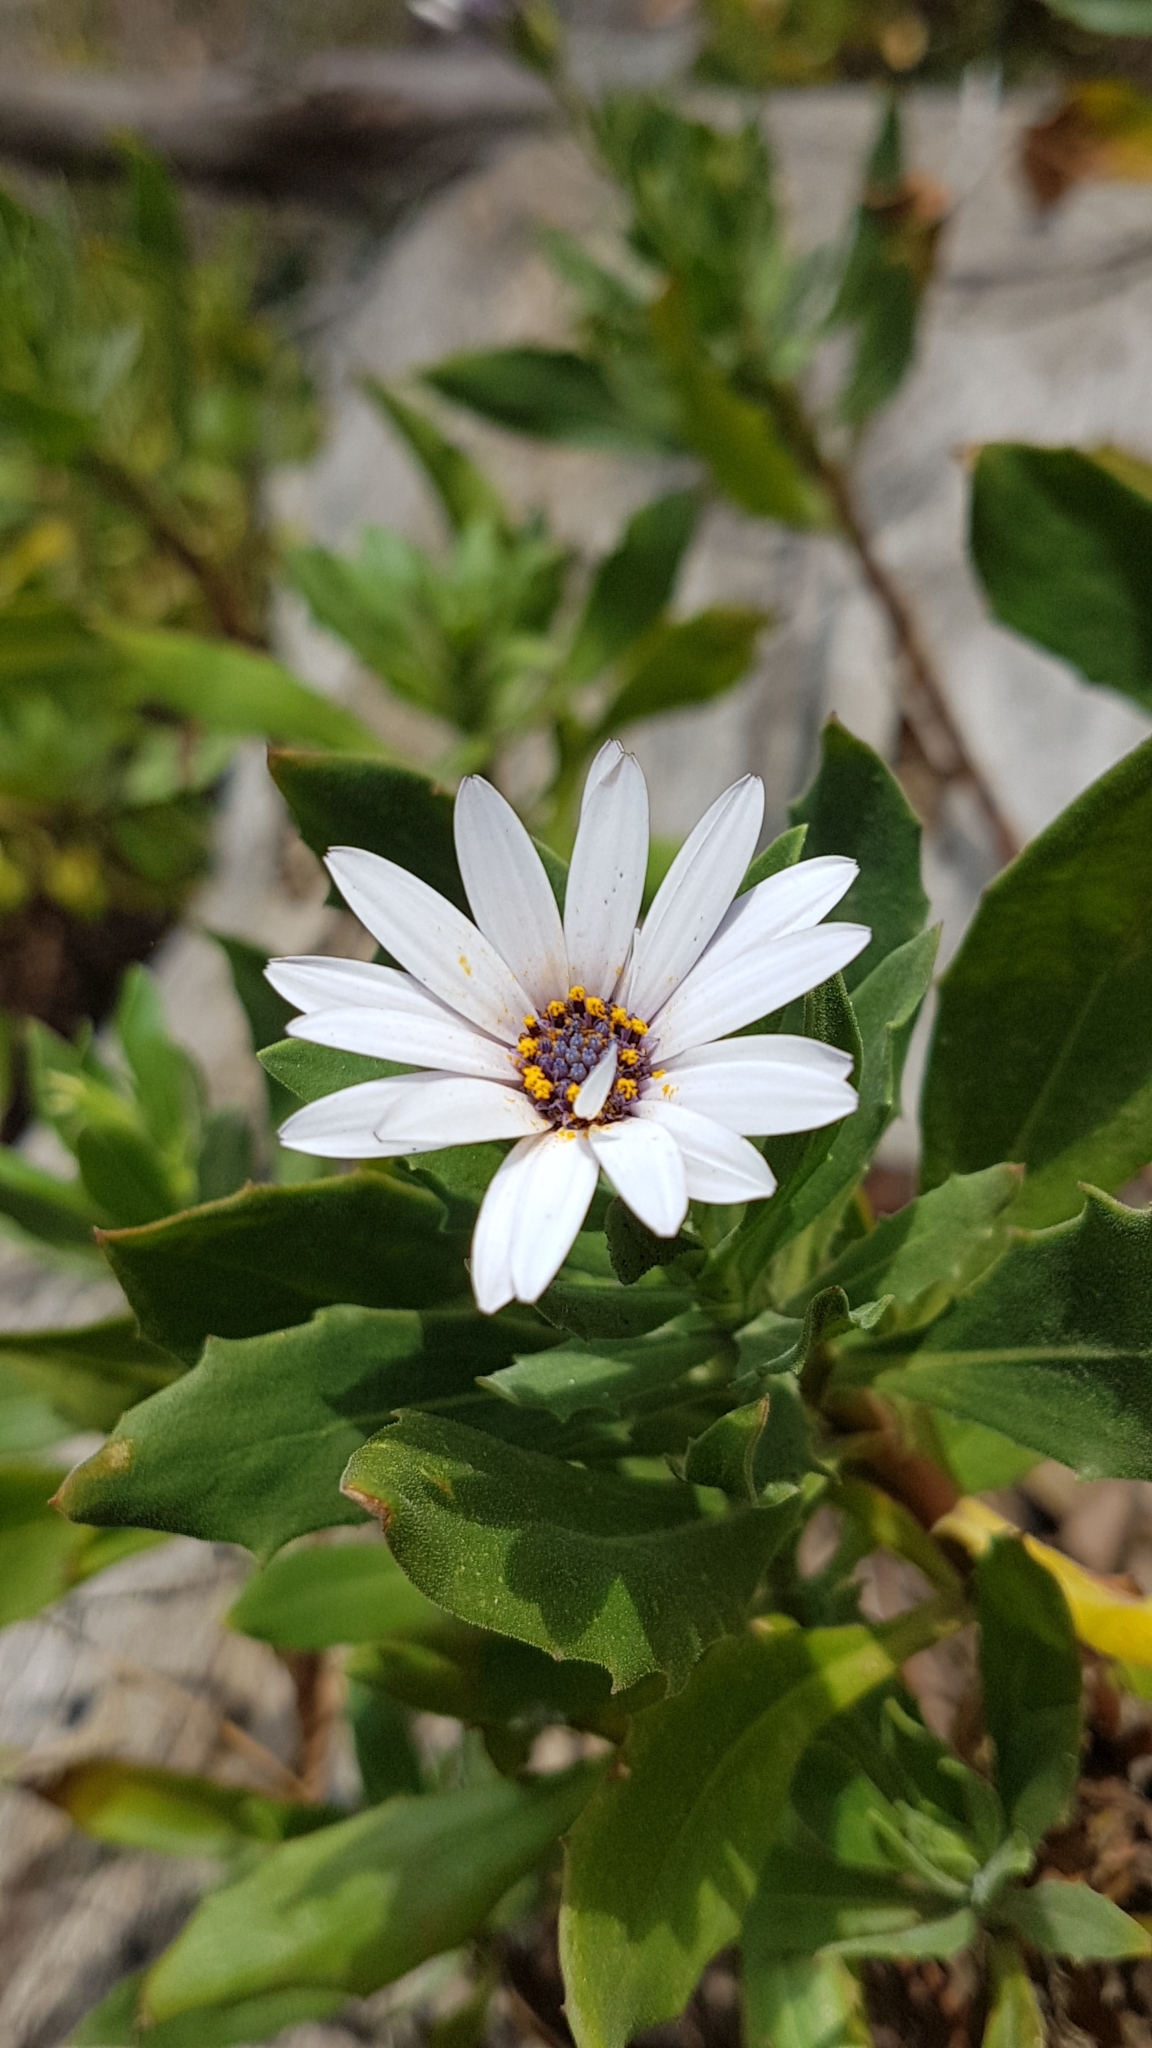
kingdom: Plantae
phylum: Tracheophyta
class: Magnoliopsida
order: Asterales
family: Asteraceae
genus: Dimorphotheca
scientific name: Dimorphotheca ecklonis
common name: Vanstaden's river daisy
